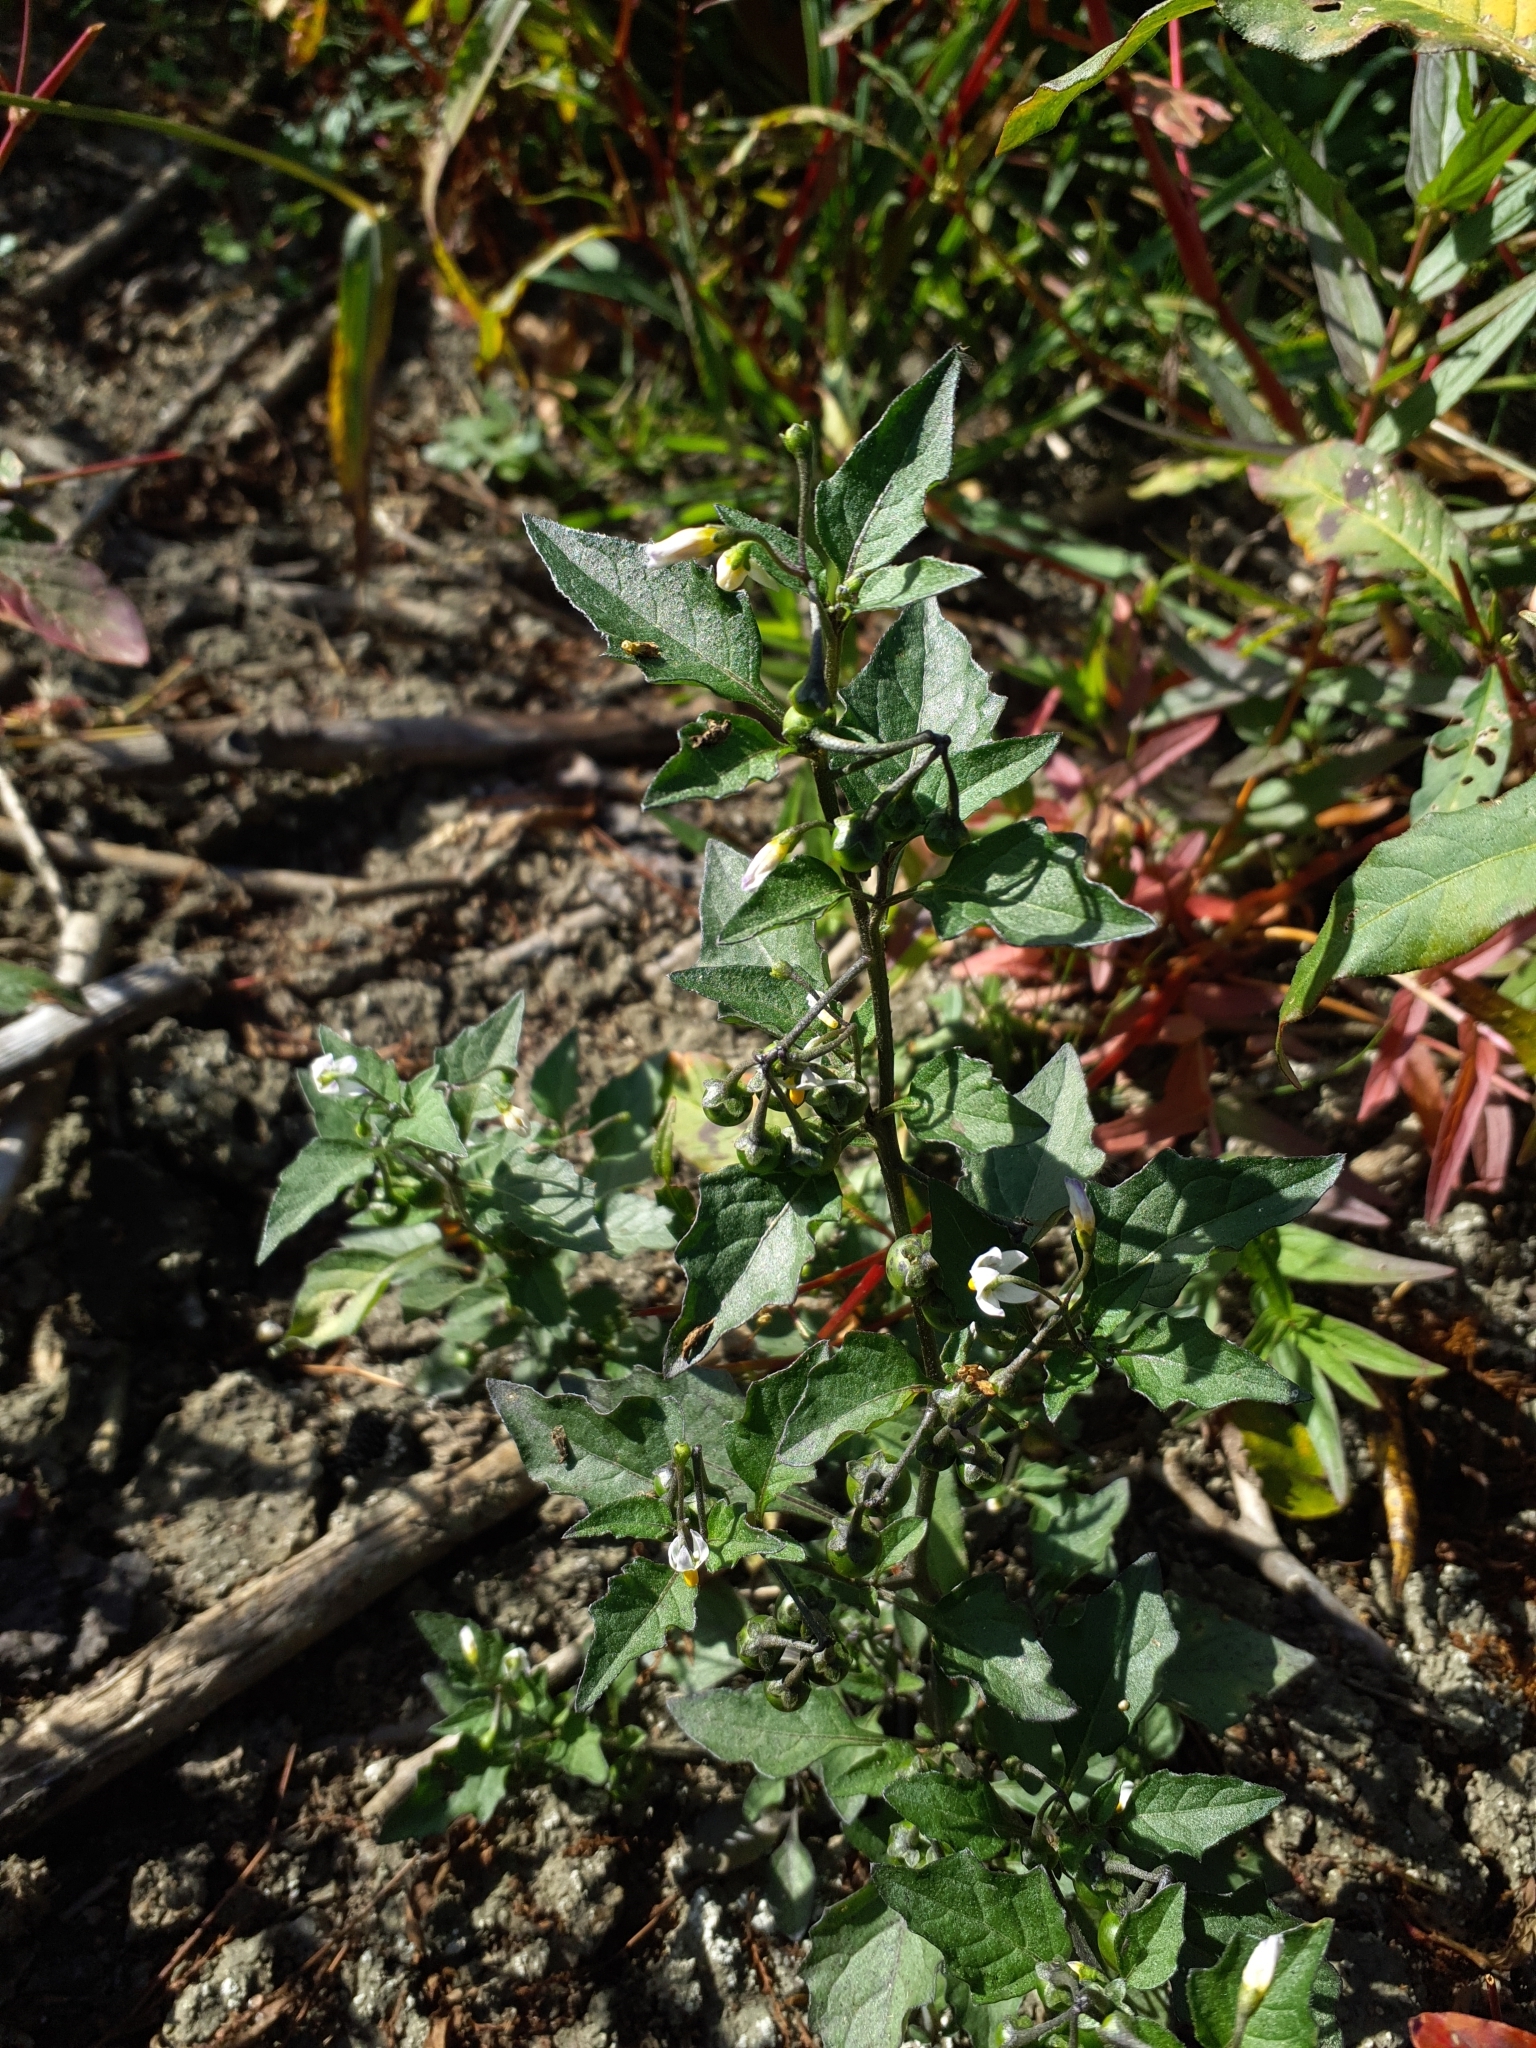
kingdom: Plantae
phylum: Tracheophyta
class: Magnoliopsida
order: Solanales
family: Solanaceae
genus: Solanum
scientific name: Solanum nigrum
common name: Black nightshade
